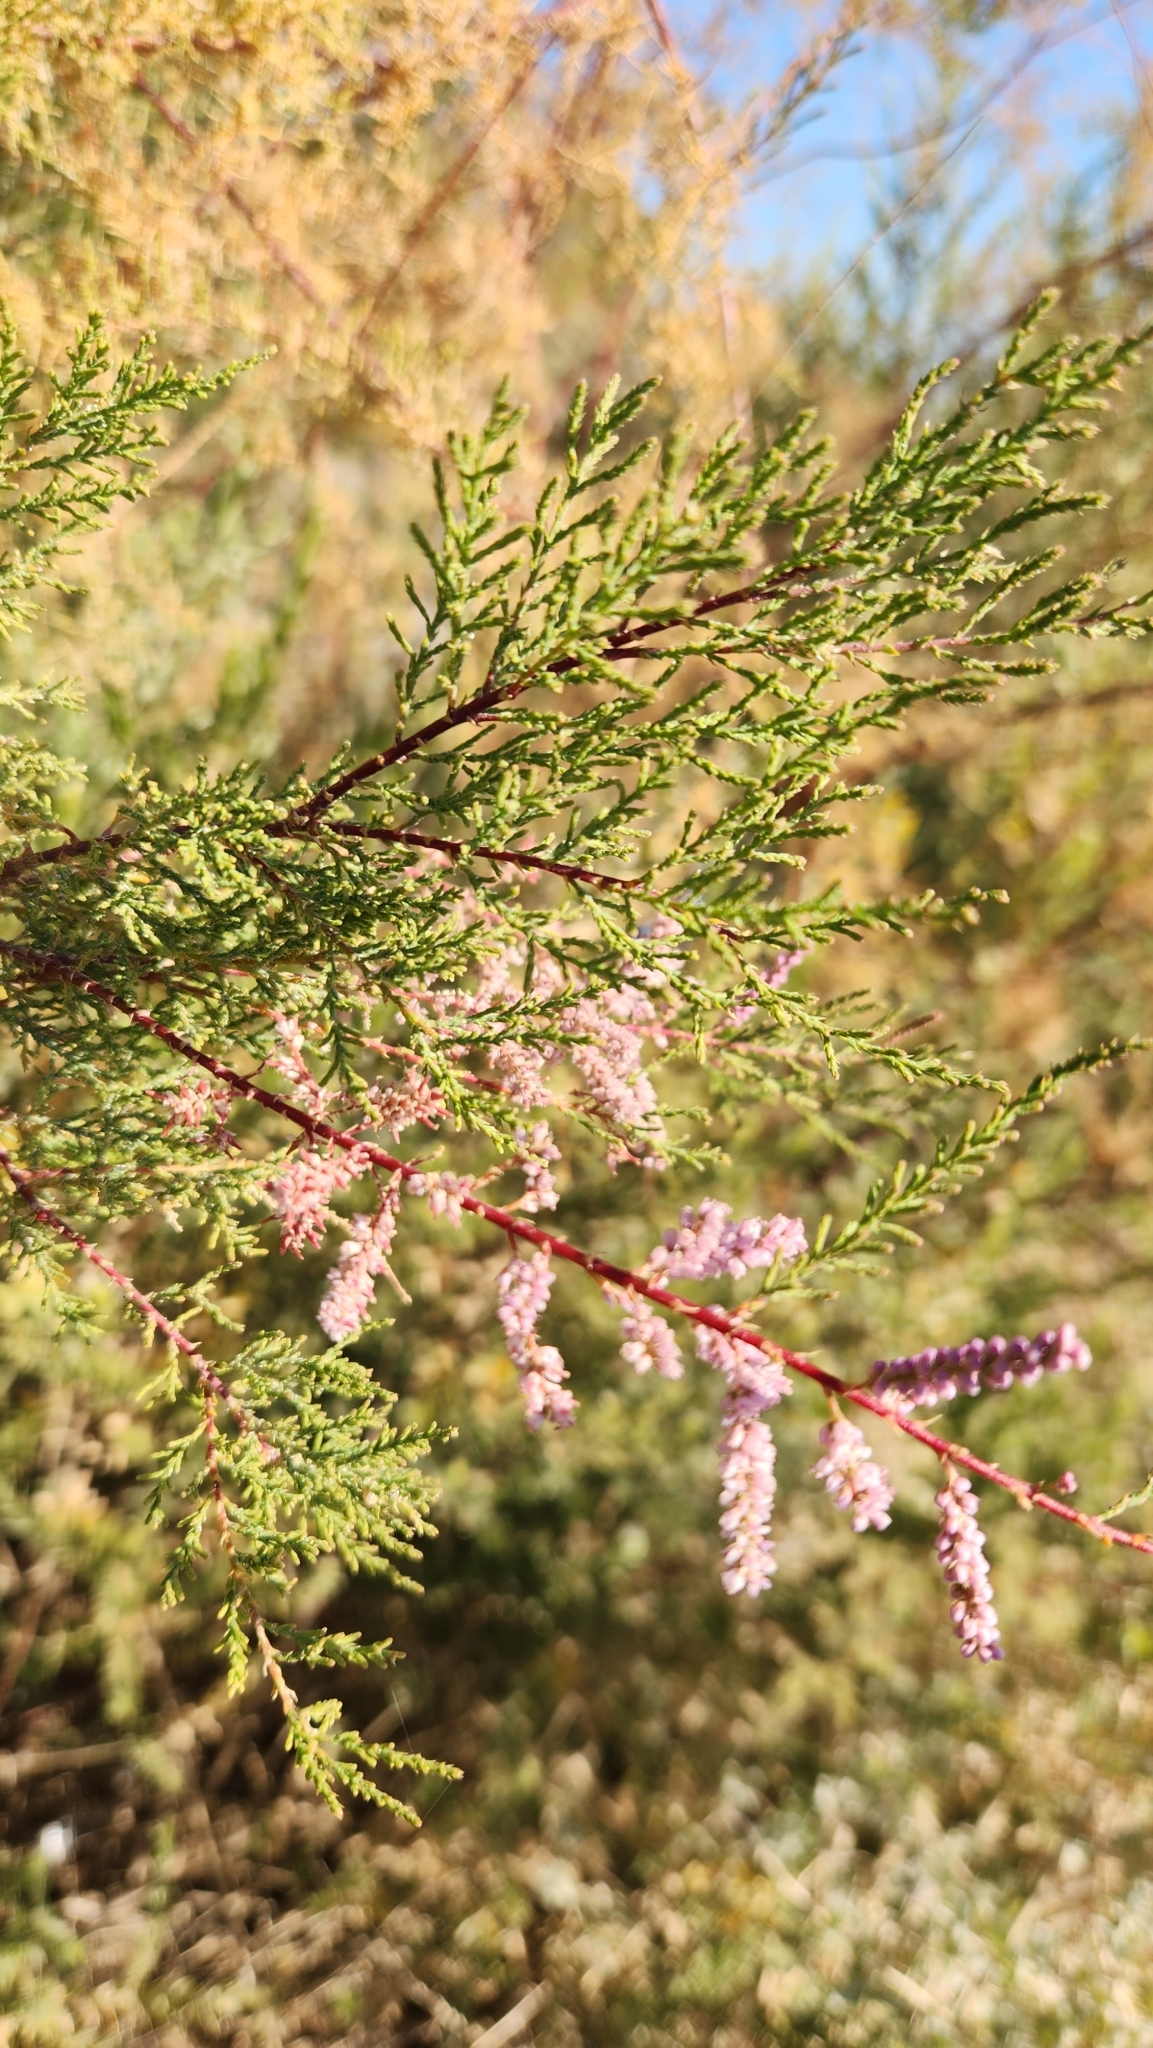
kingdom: Plantae
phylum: Tracheophyta
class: Magnoliopsida
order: Caryophyllales
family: Tamaricaceae
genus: Tamarix
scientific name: Tamarix ramosissima
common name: Pink tamarisk
